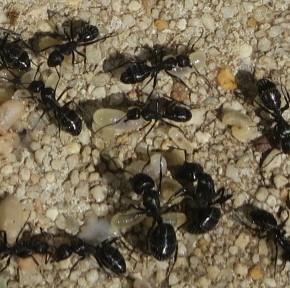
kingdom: Animalia
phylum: Arthropoda
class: Insecta
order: Hymenoptera
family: Formicidae
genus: Camponotus
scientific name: Camponotus niveosetosus
